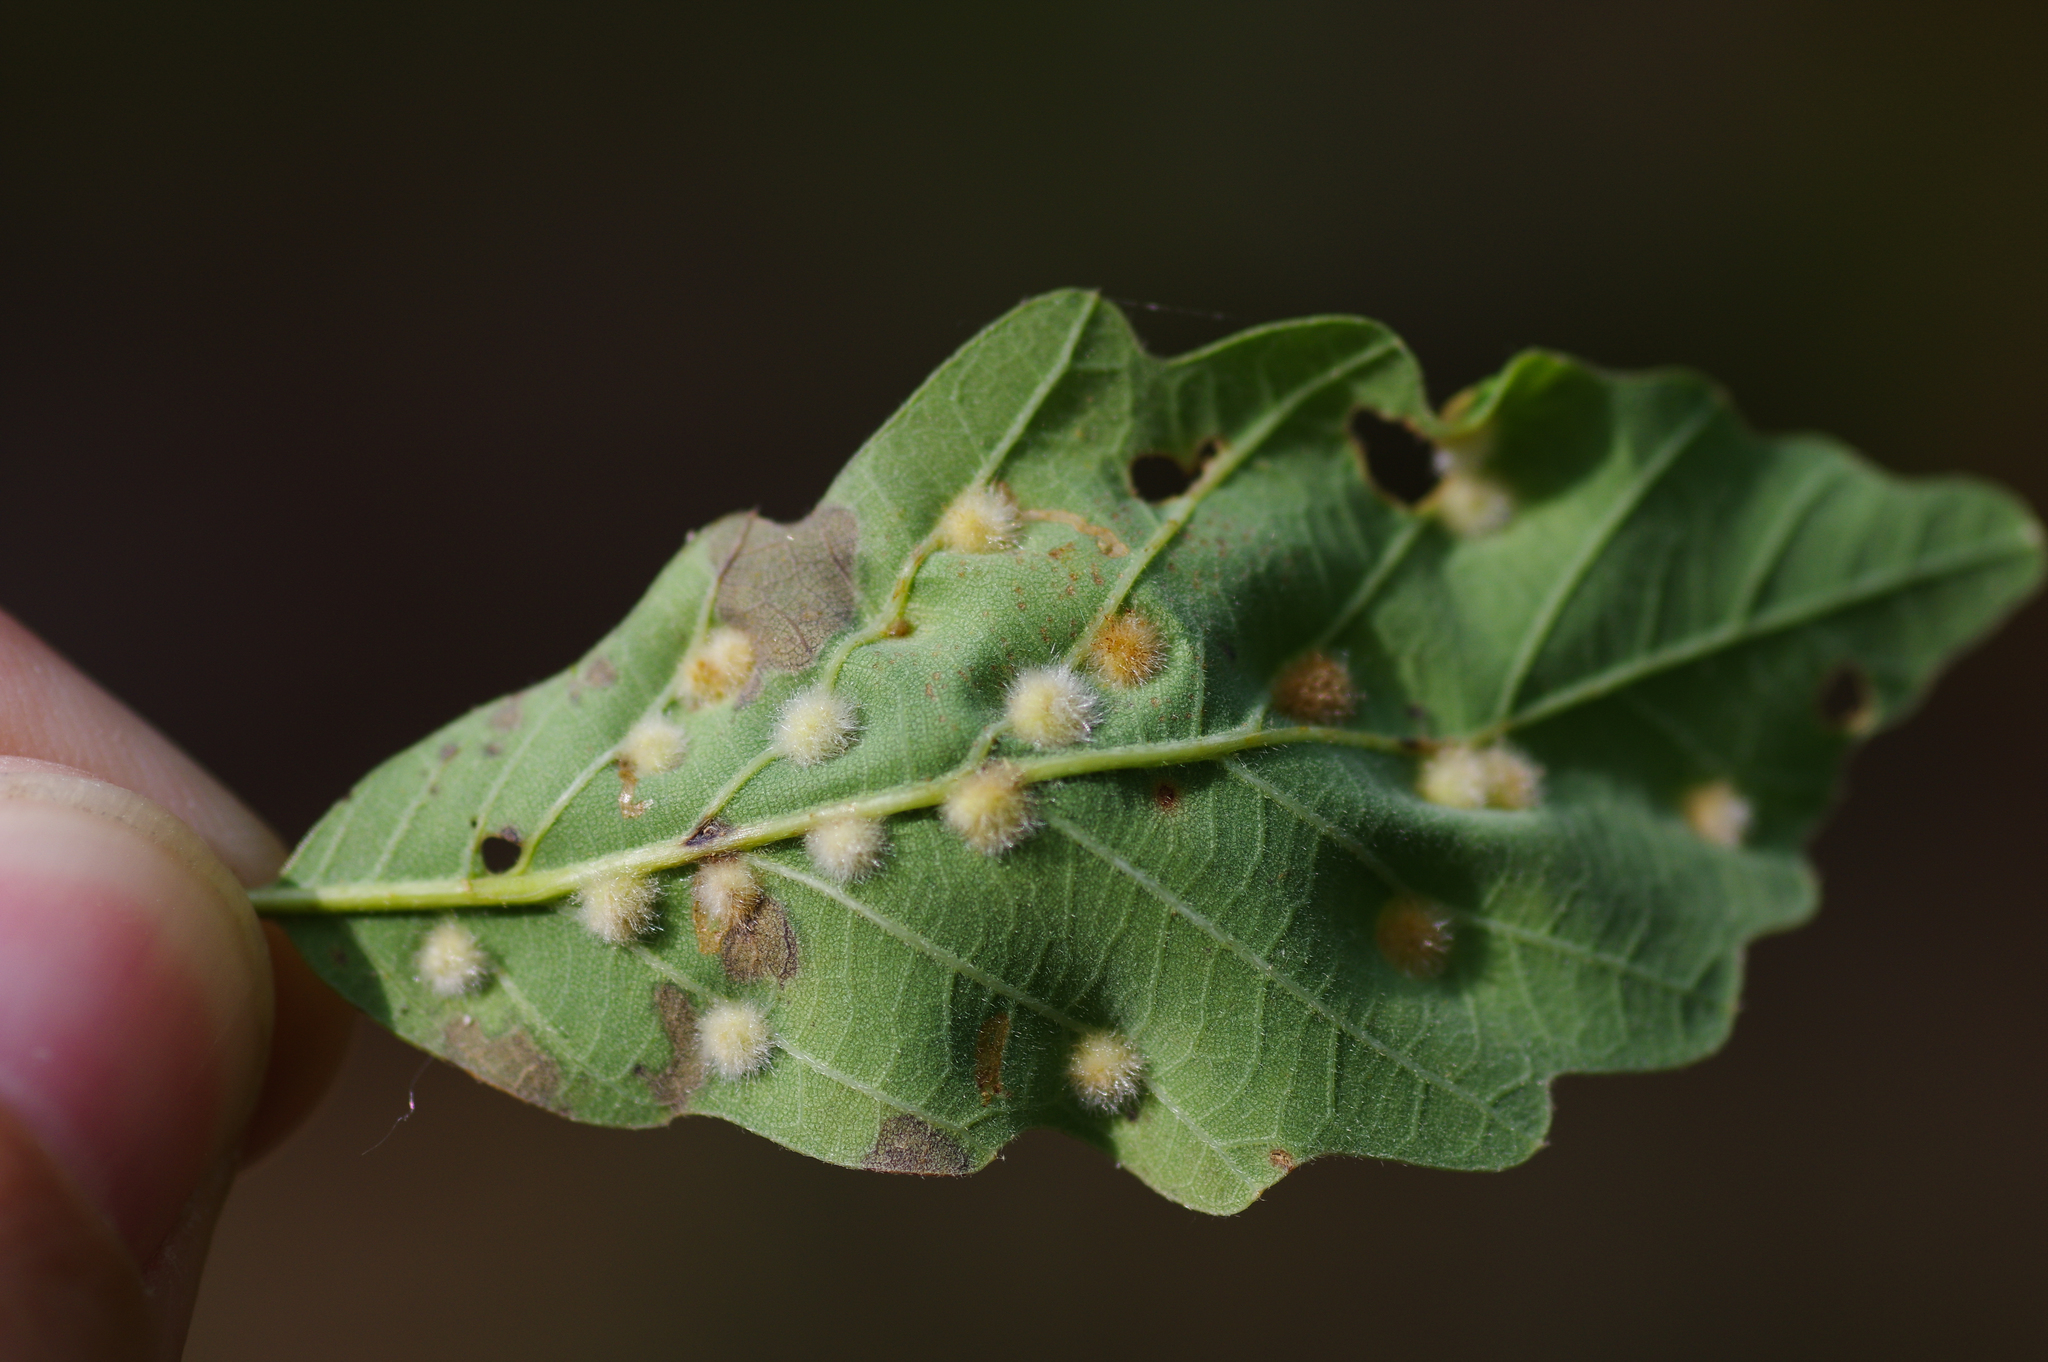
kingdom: Animalia
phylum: Arthropoda
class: Insecta
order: Hymenoptera
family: Cynipidae
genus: Neuroterus
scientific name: Neuroterus quercusverrucarum
